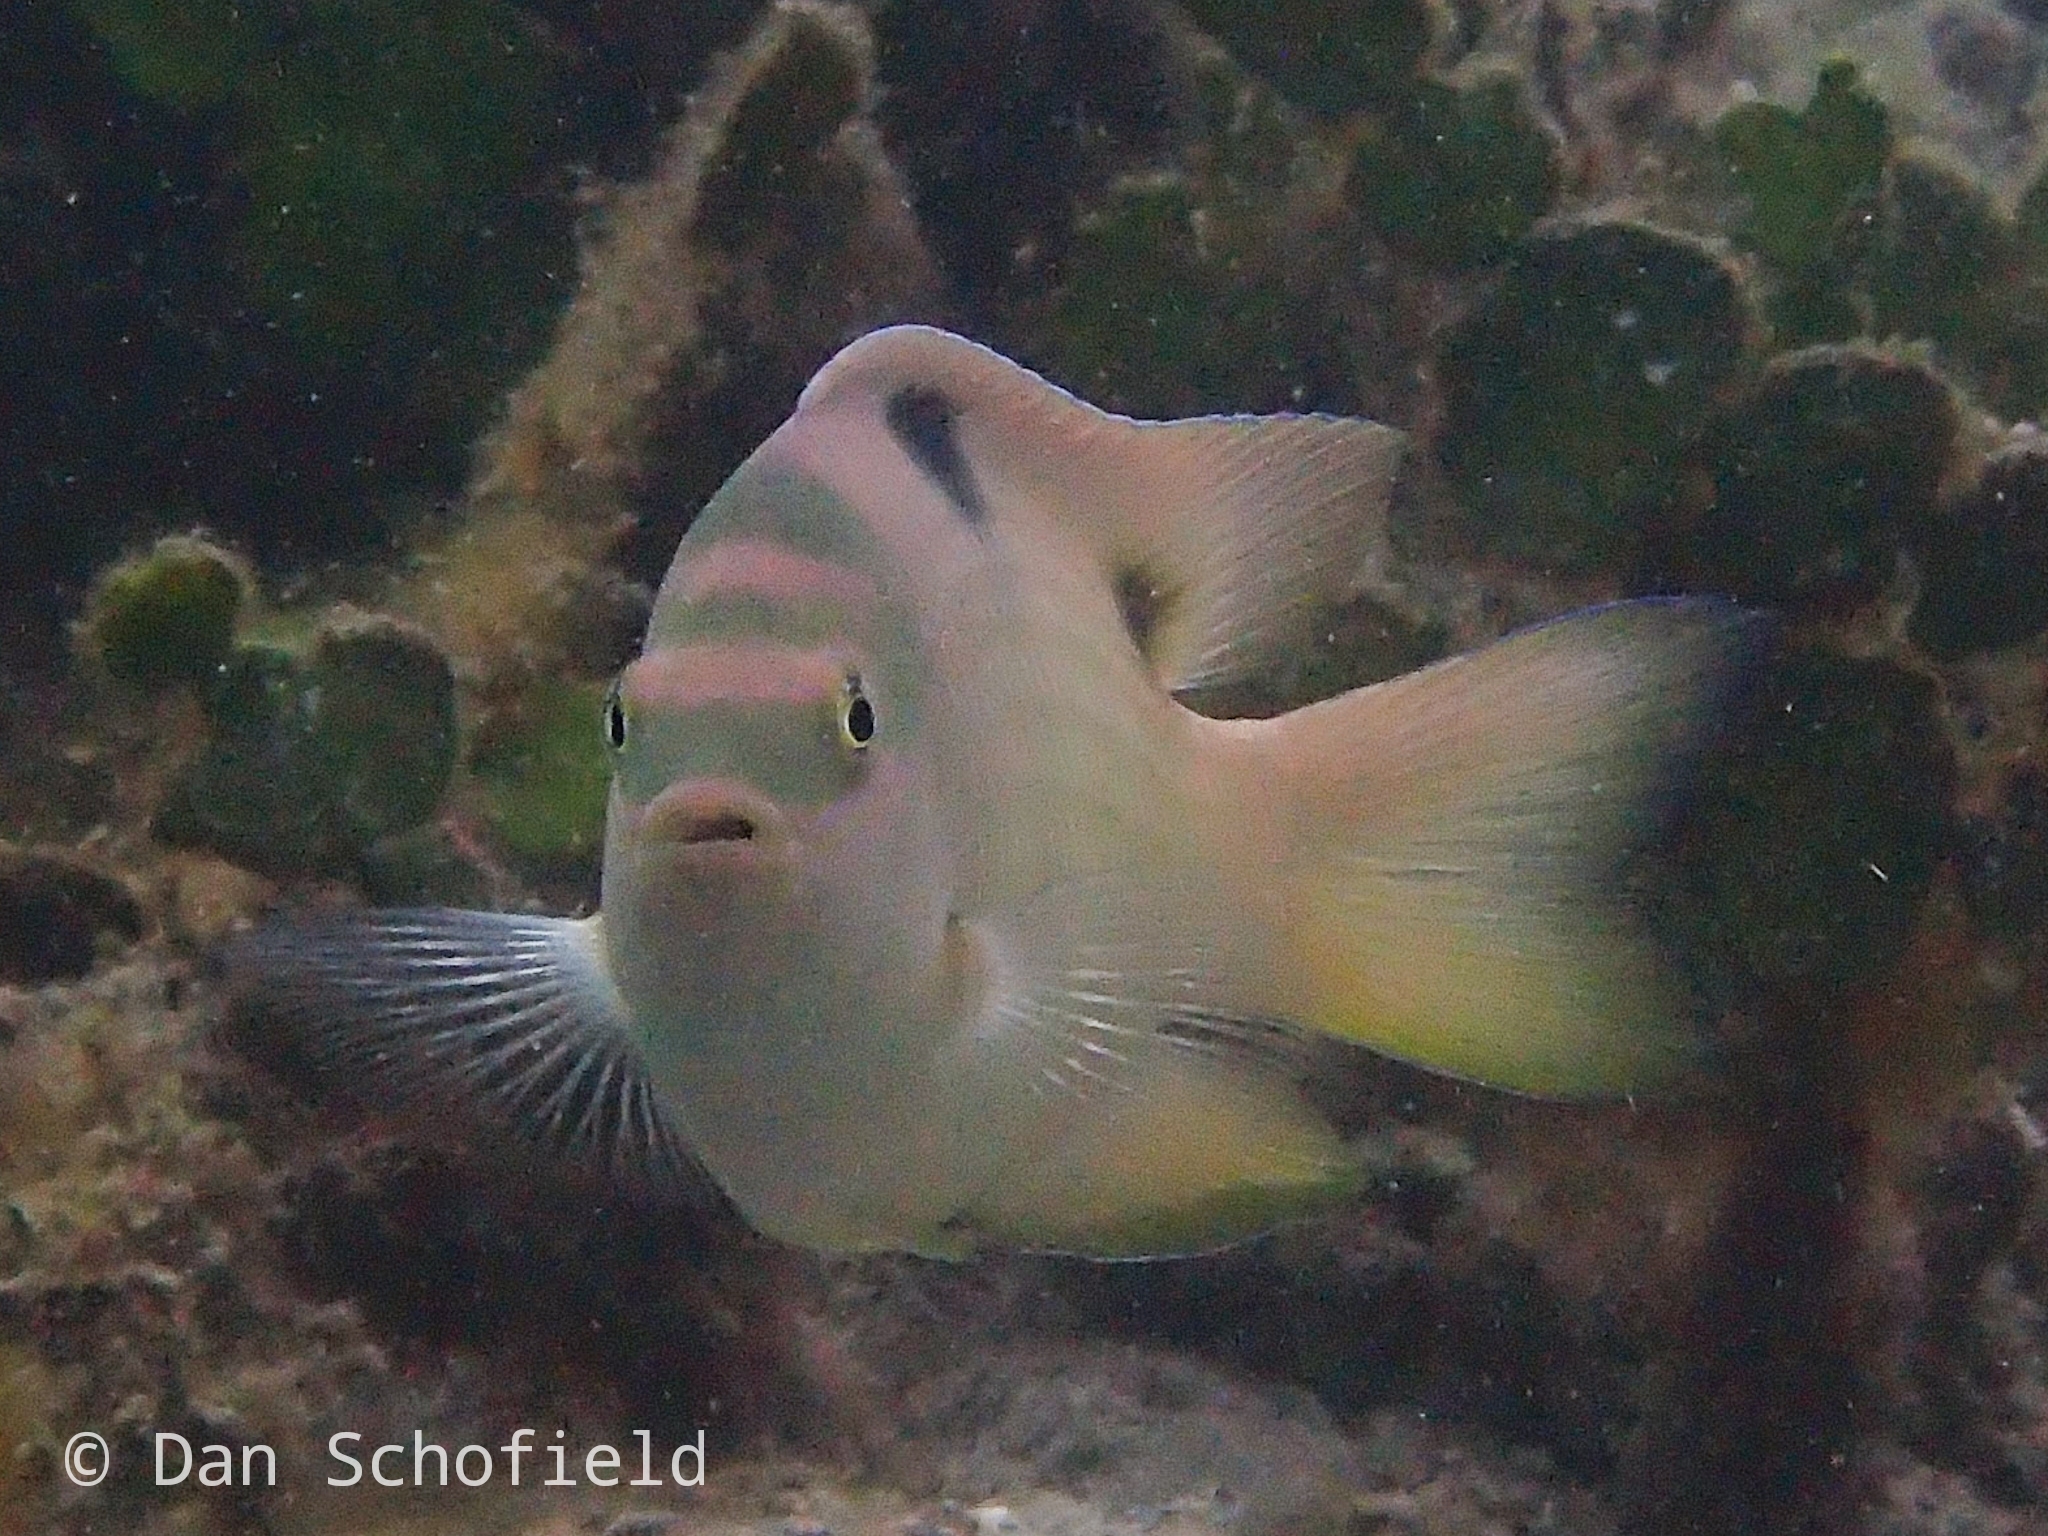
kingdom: Animalia
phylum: Chordata
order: Perciformes
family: Pomacentridae
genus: Dischistodus
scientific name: Dischistodus perspicillatus
